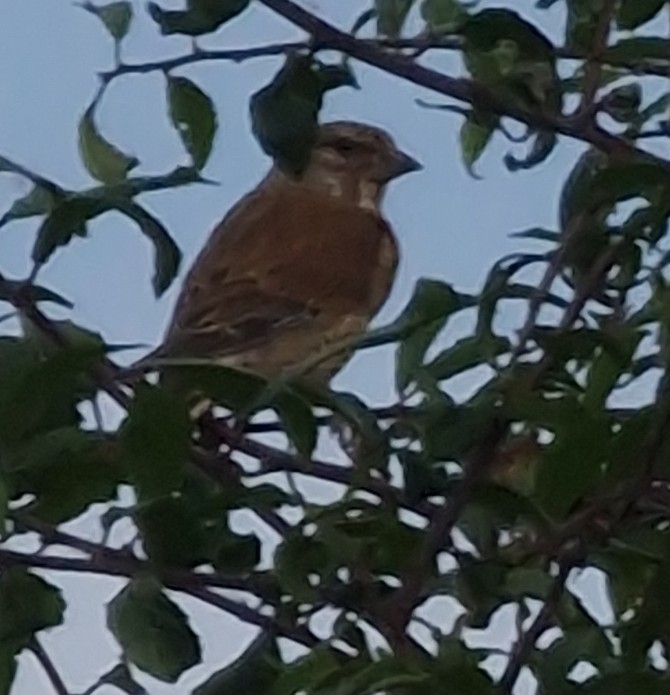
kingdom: Animalia
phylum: Chordata
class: Aves
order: Passeriformes
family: Fringillidae
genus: Linaria
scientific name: Linaria cannabina
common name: Common linnet
